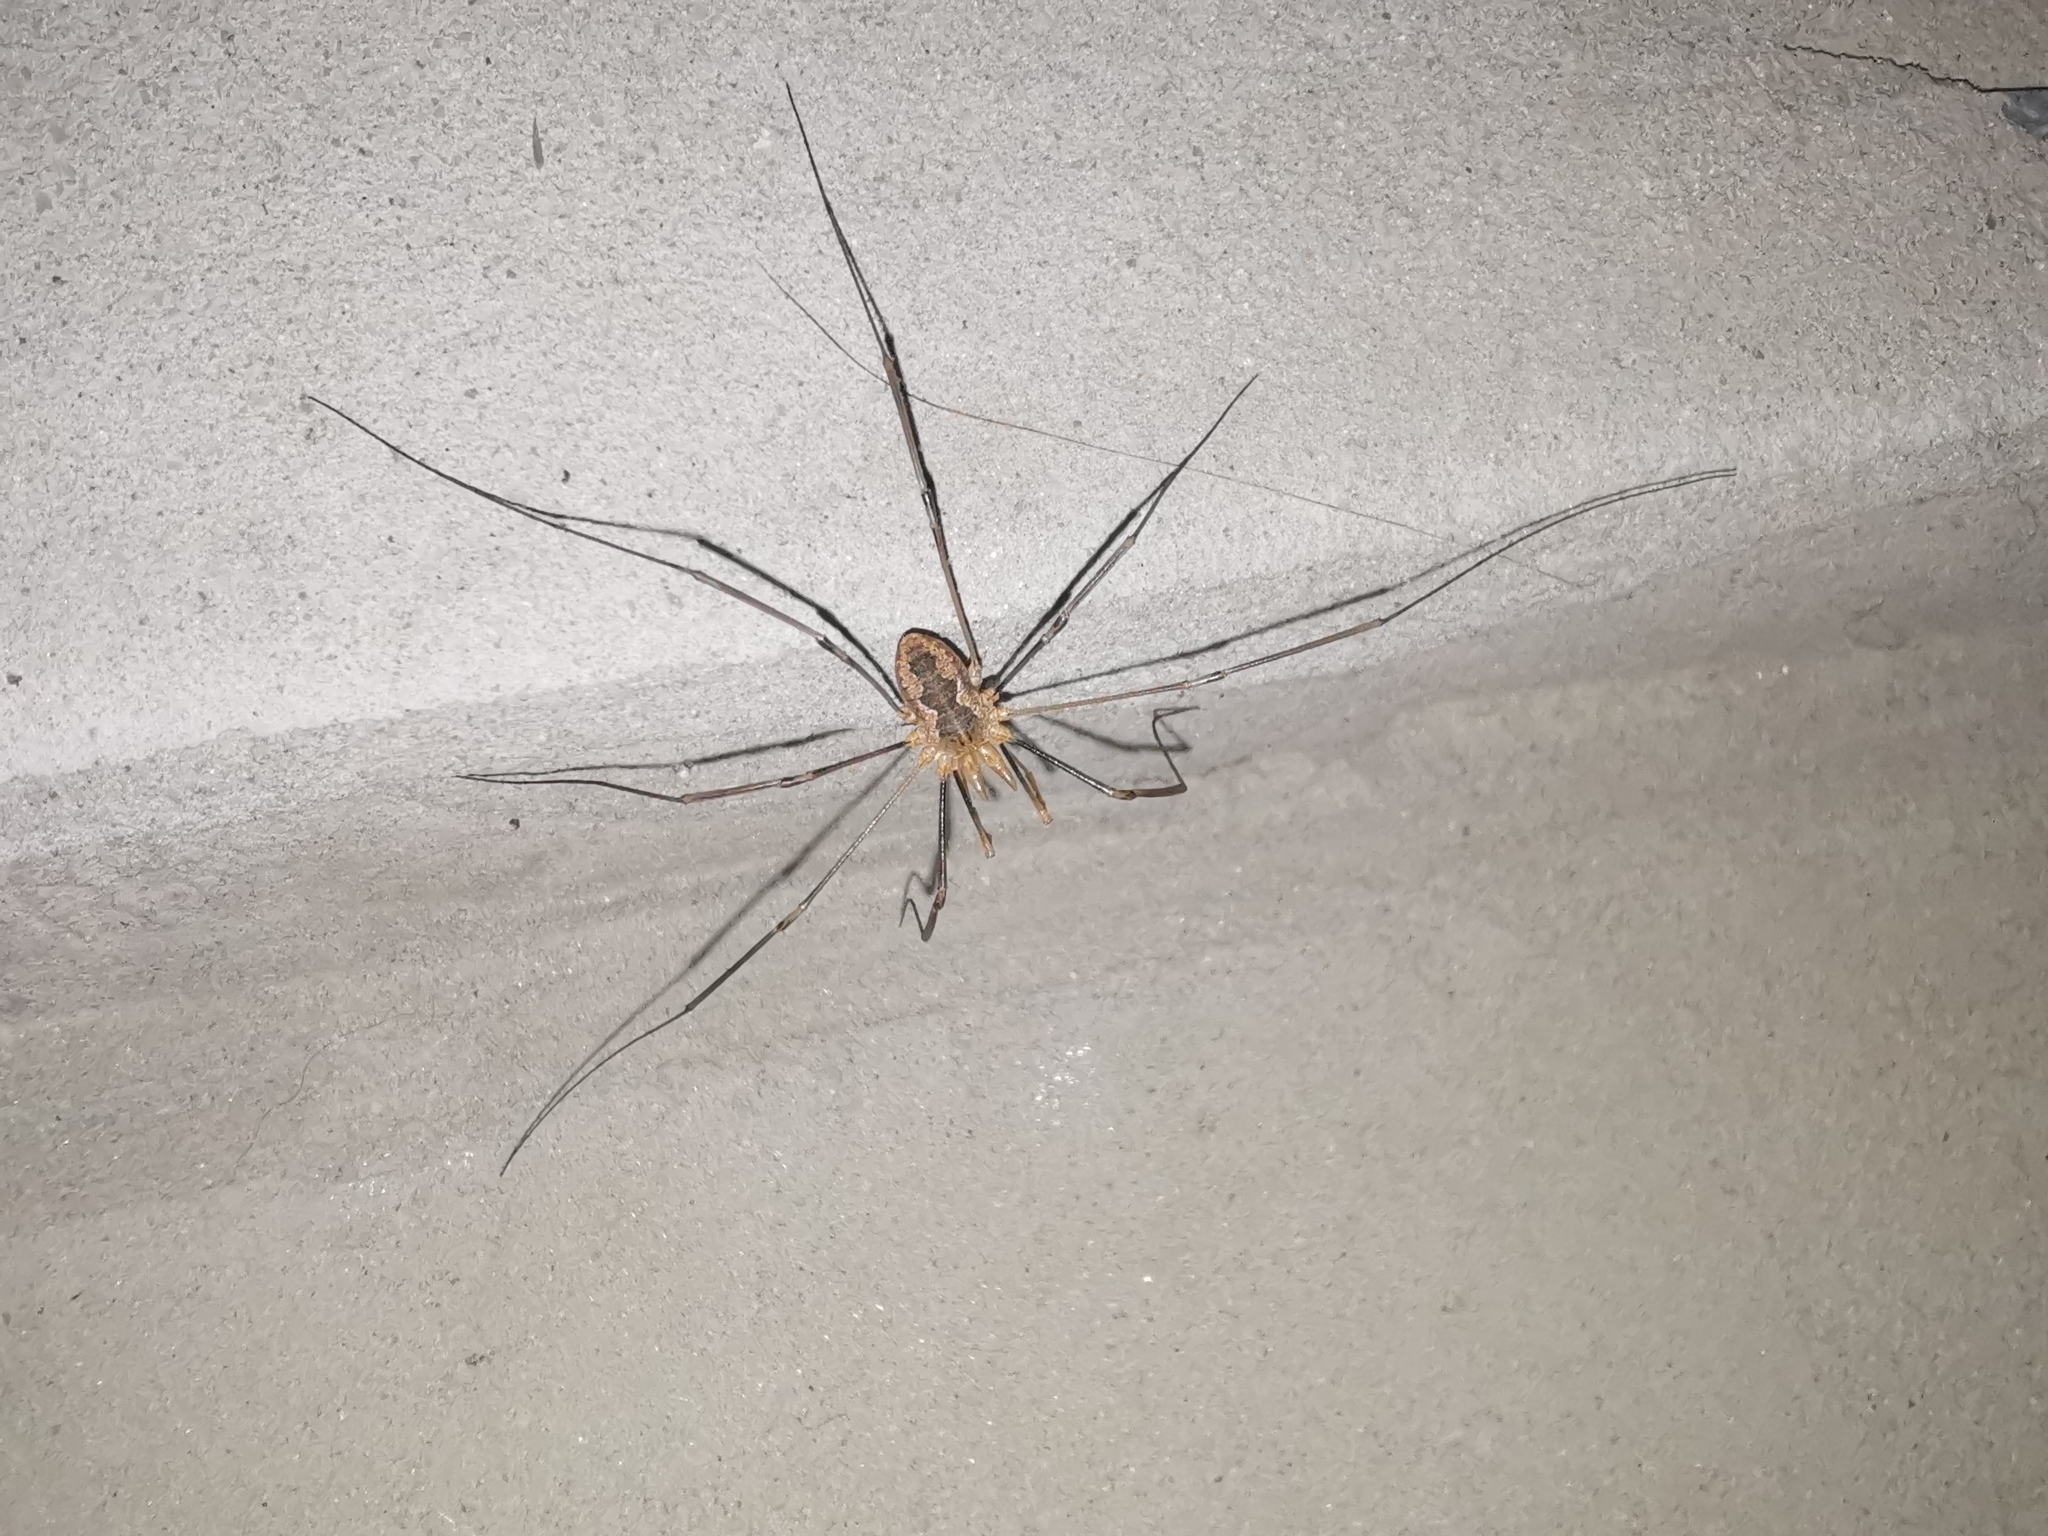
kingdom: Animalia
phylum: Arthropoda
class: Arachnida
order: Opiliones
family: Phalangiidae
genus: Phalangium
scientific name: Phalangium opilio
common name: Daddy longleg
